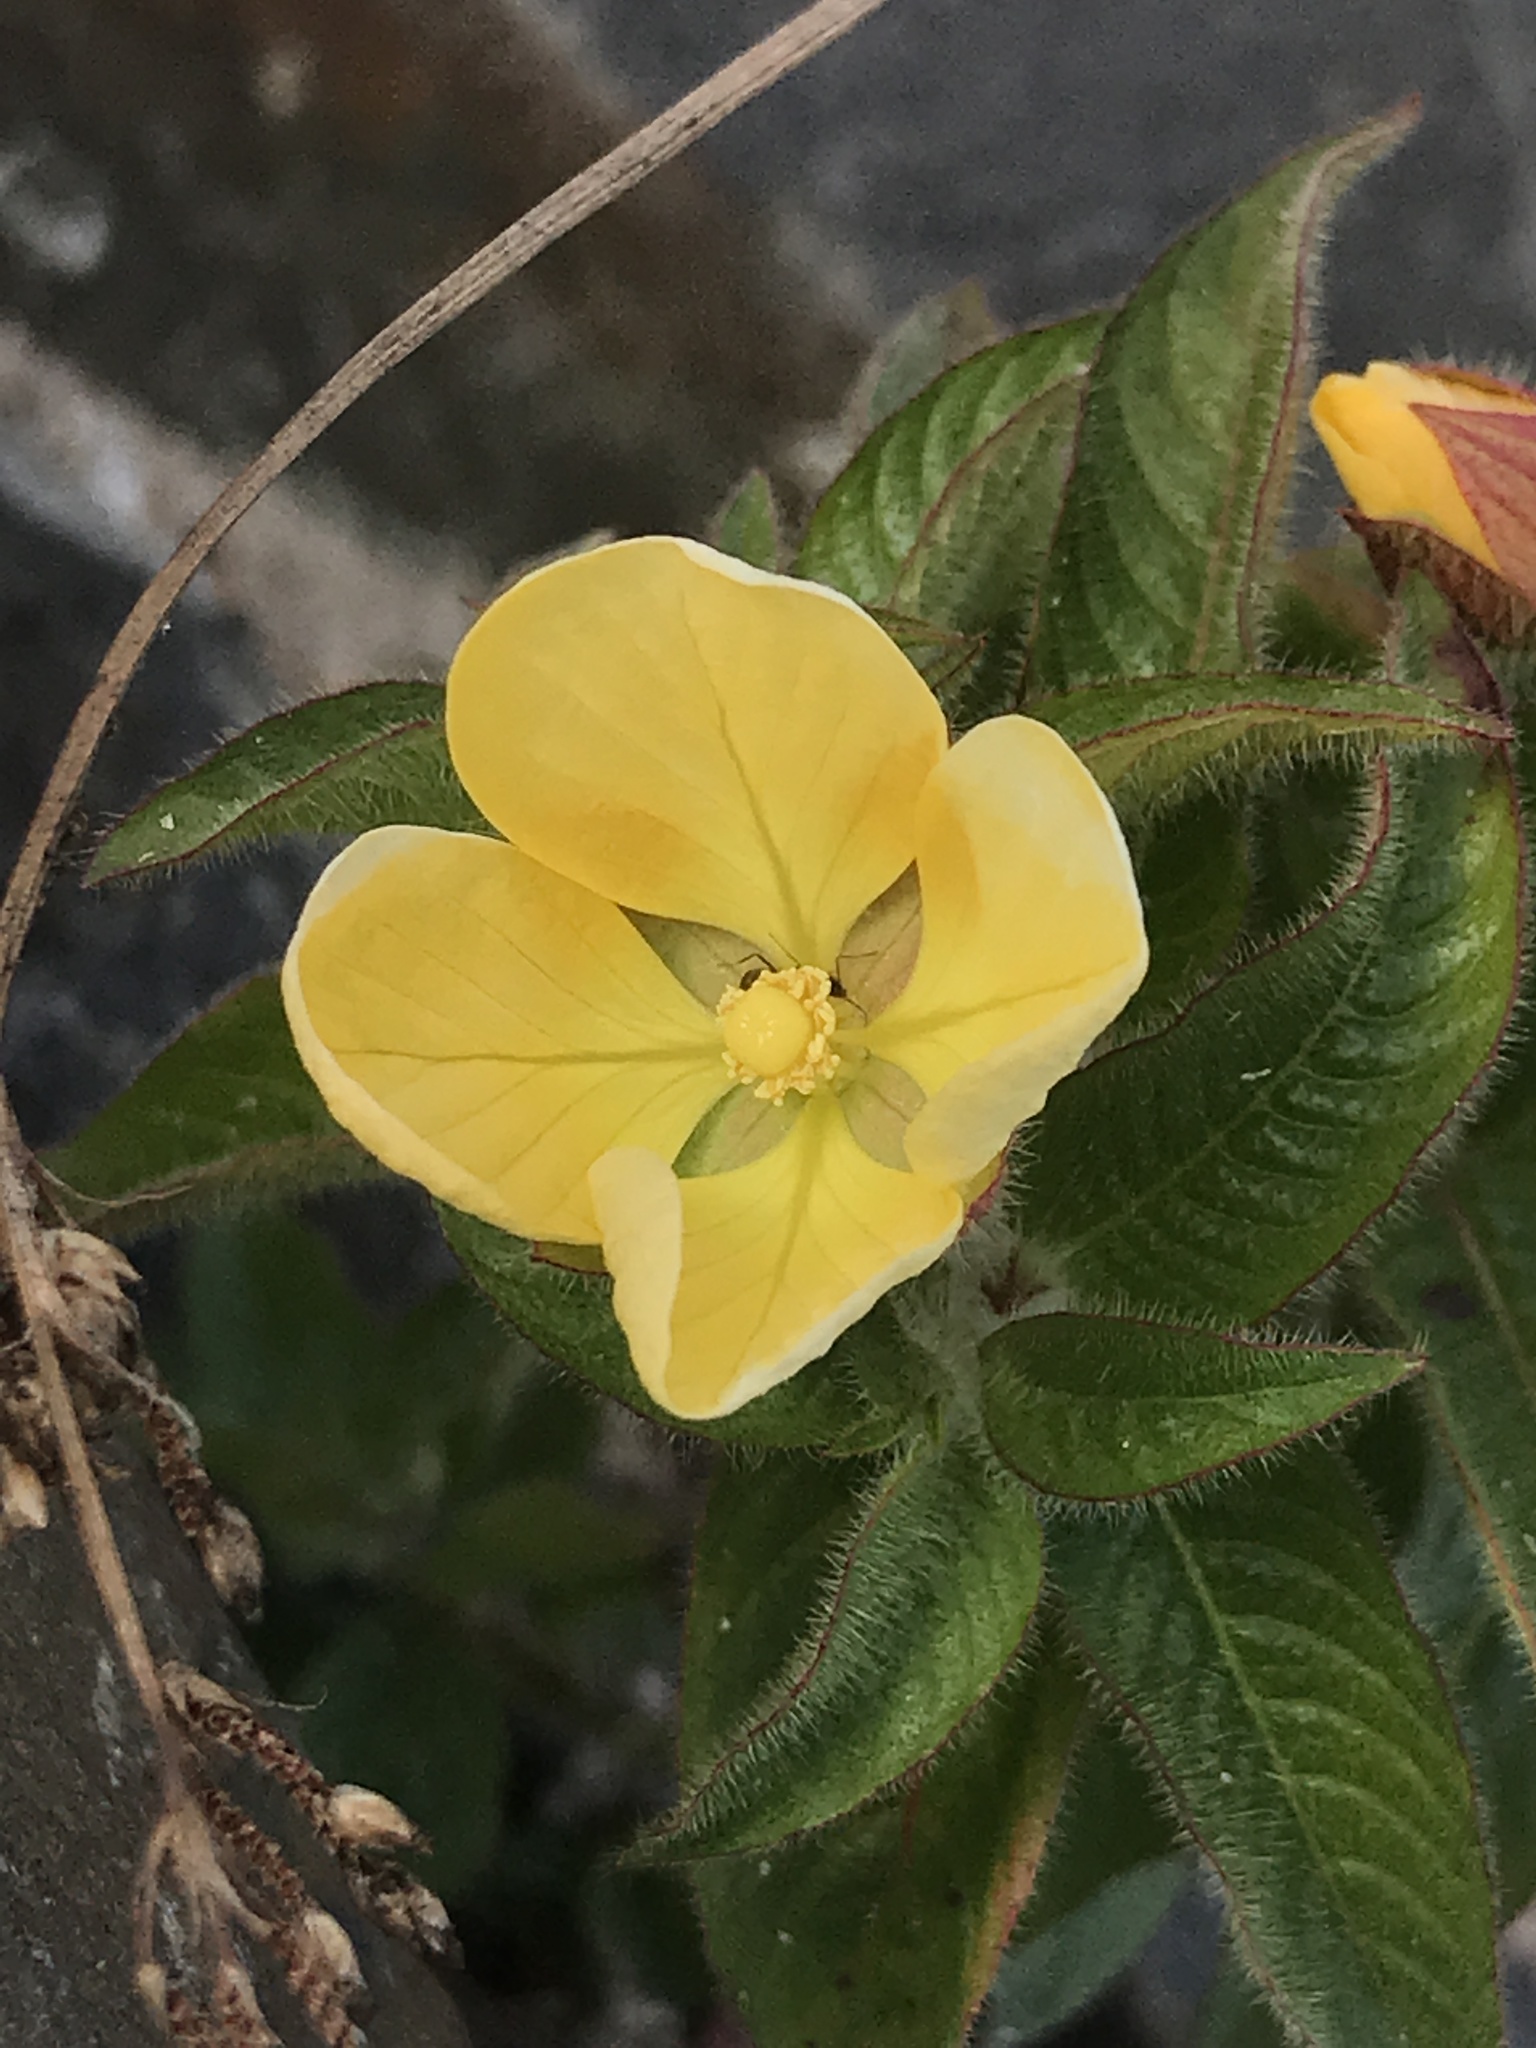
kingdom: Plantae
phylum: Tracheophyta
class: Magnoliopsida
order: Myrtales
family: Onagraceae
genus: Ludwigia
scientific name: Ludwigia octovalvis
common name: Water-primrose
